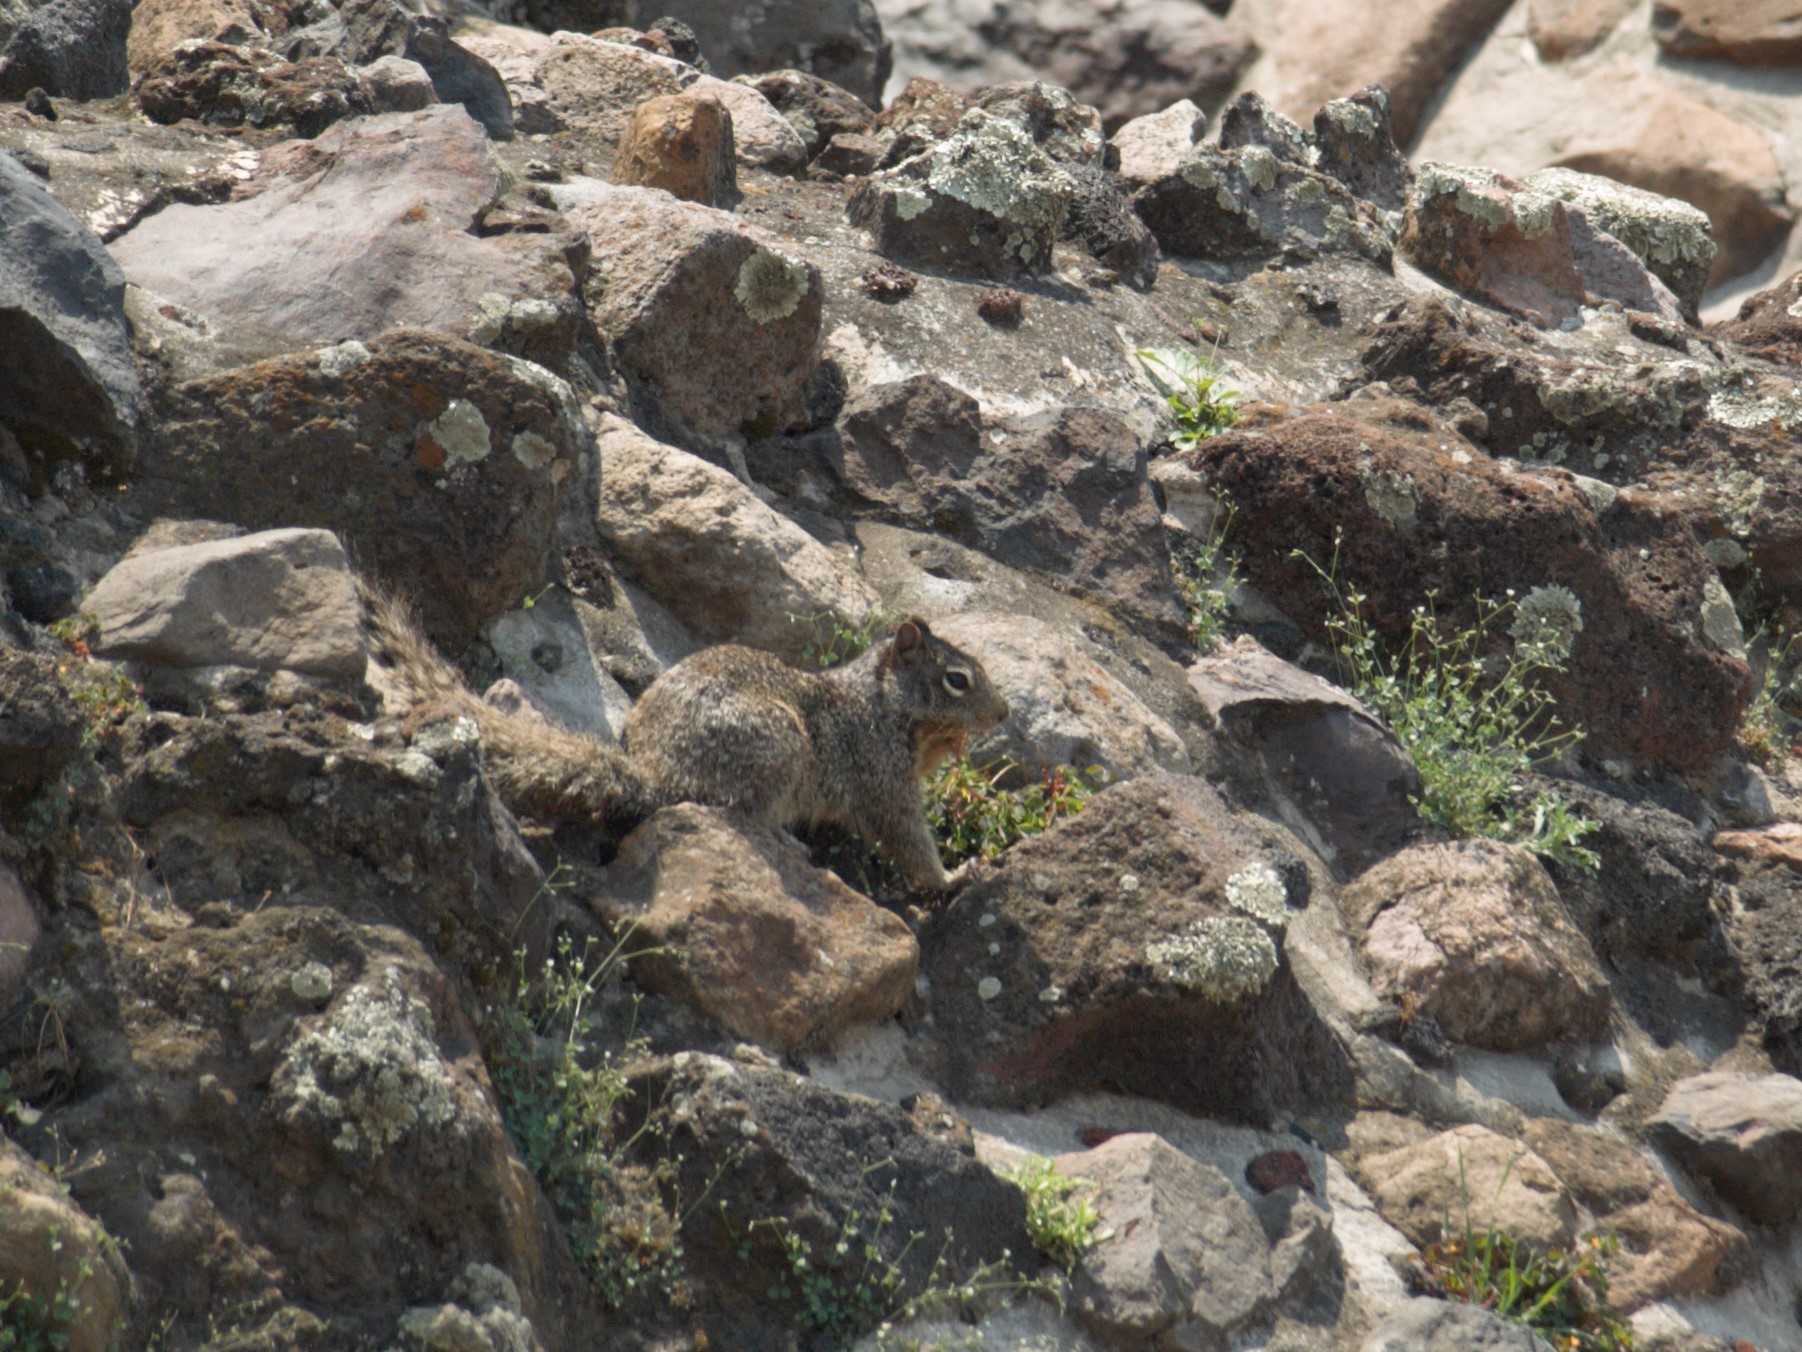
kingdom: Animalia
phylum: Chordata
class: Mammalia
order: Rodentia
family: Sciuridae
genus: Otospermophilus
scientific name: Otospermophilus variegatus
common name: Rock squirrel
